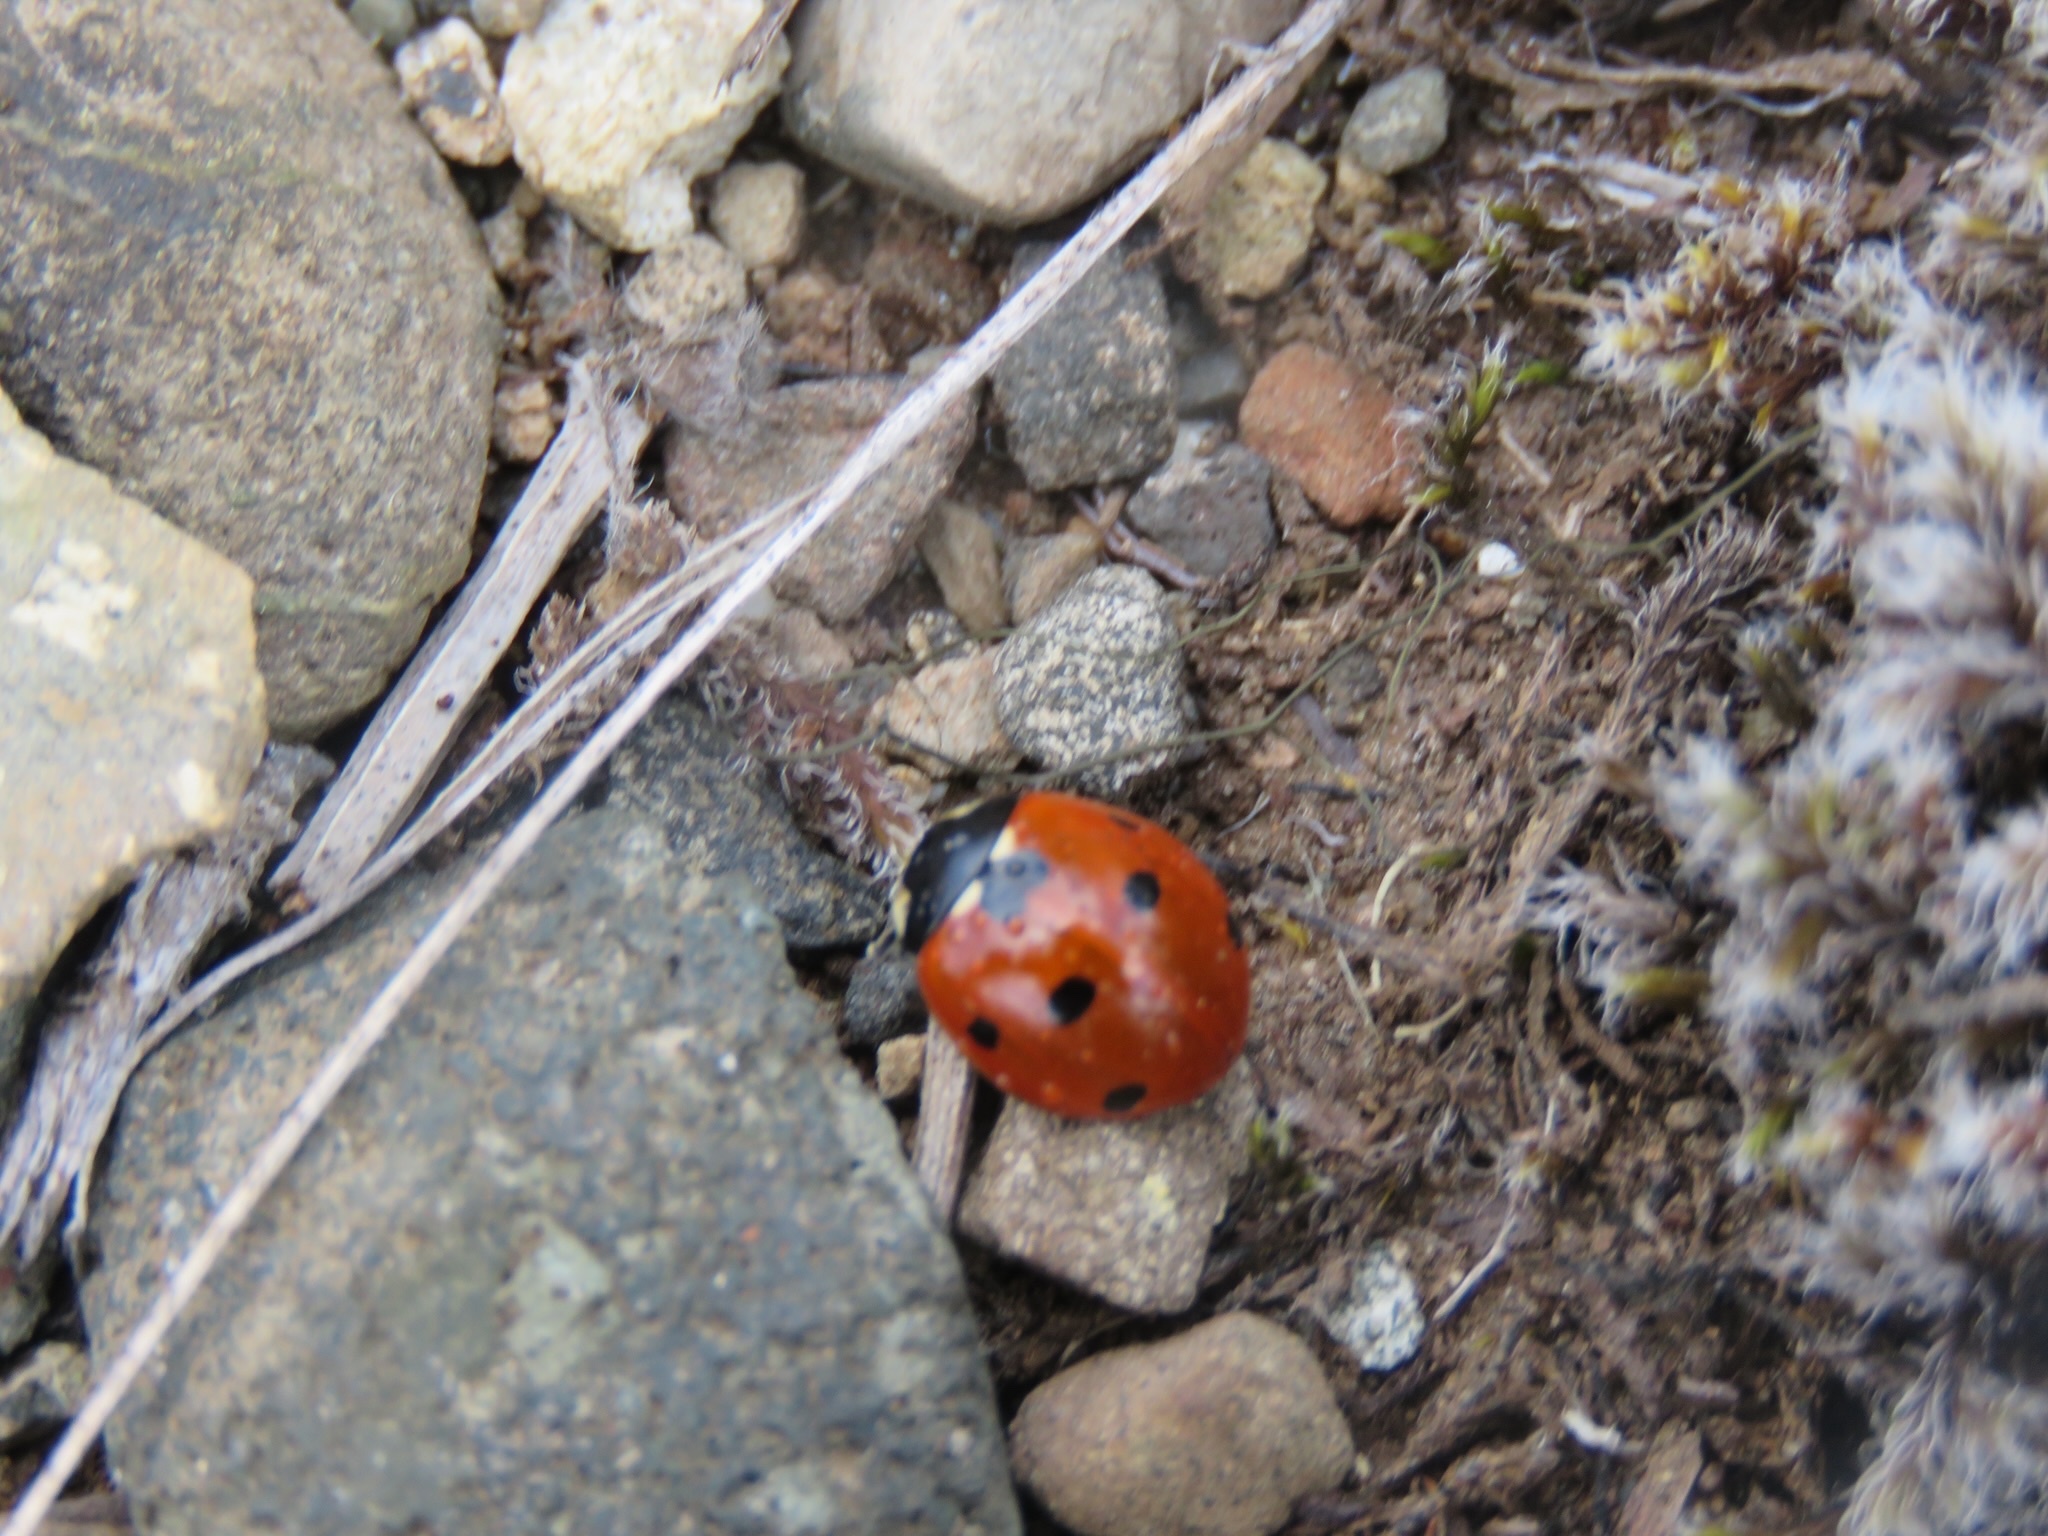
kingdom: Animalia
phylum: Arthropoda
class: Insecta
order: Coleoptera
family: Coccinellidae
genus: Coccinella
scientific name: Coccinella septempunctata
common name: Sevenspotted lady beetle
